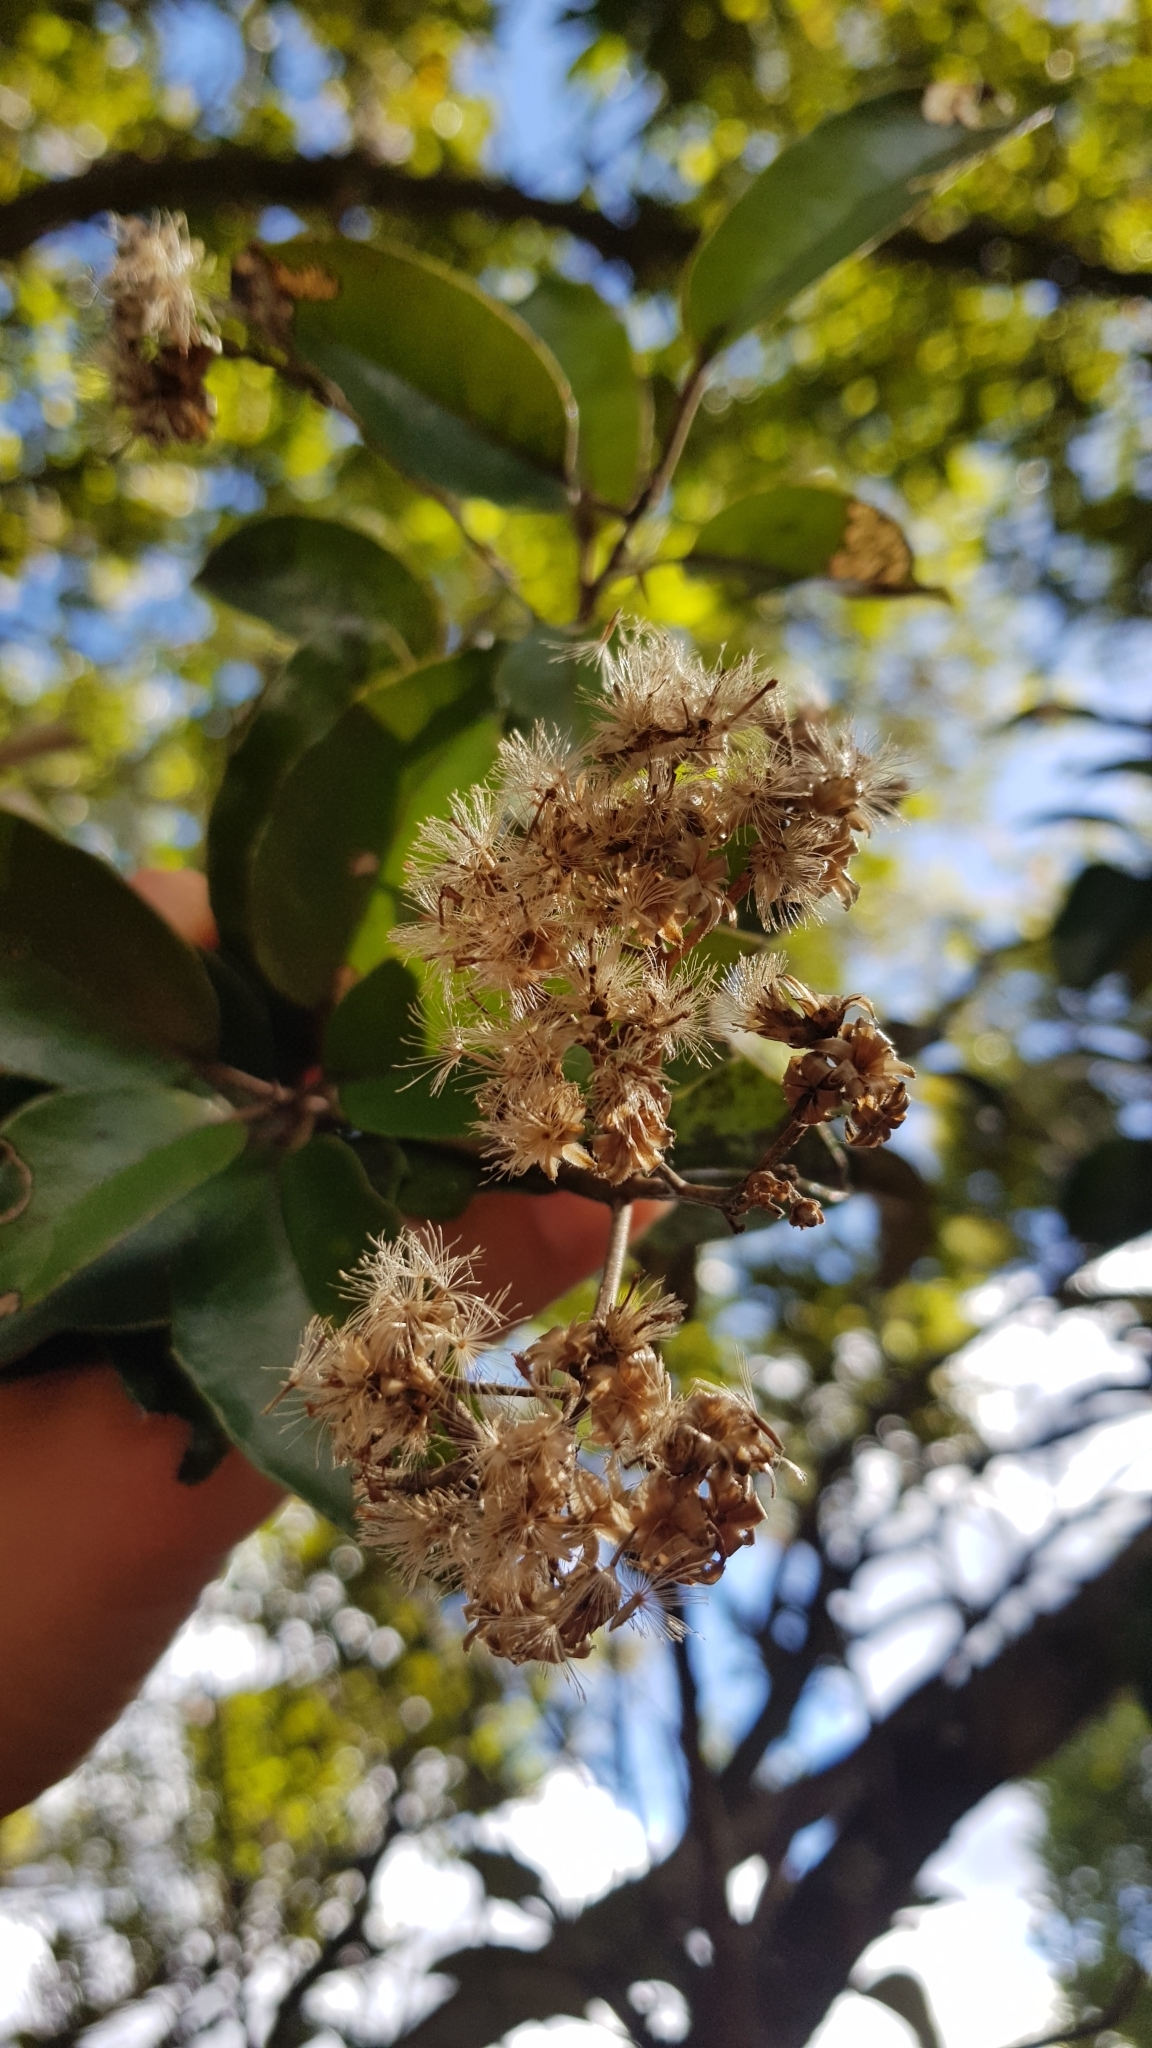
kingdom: Plantae
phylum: Tracheophyta
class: Magnoliopsida
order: Asterales
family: Asteraceae
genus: Olearia
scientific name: Olearia furfuracea
